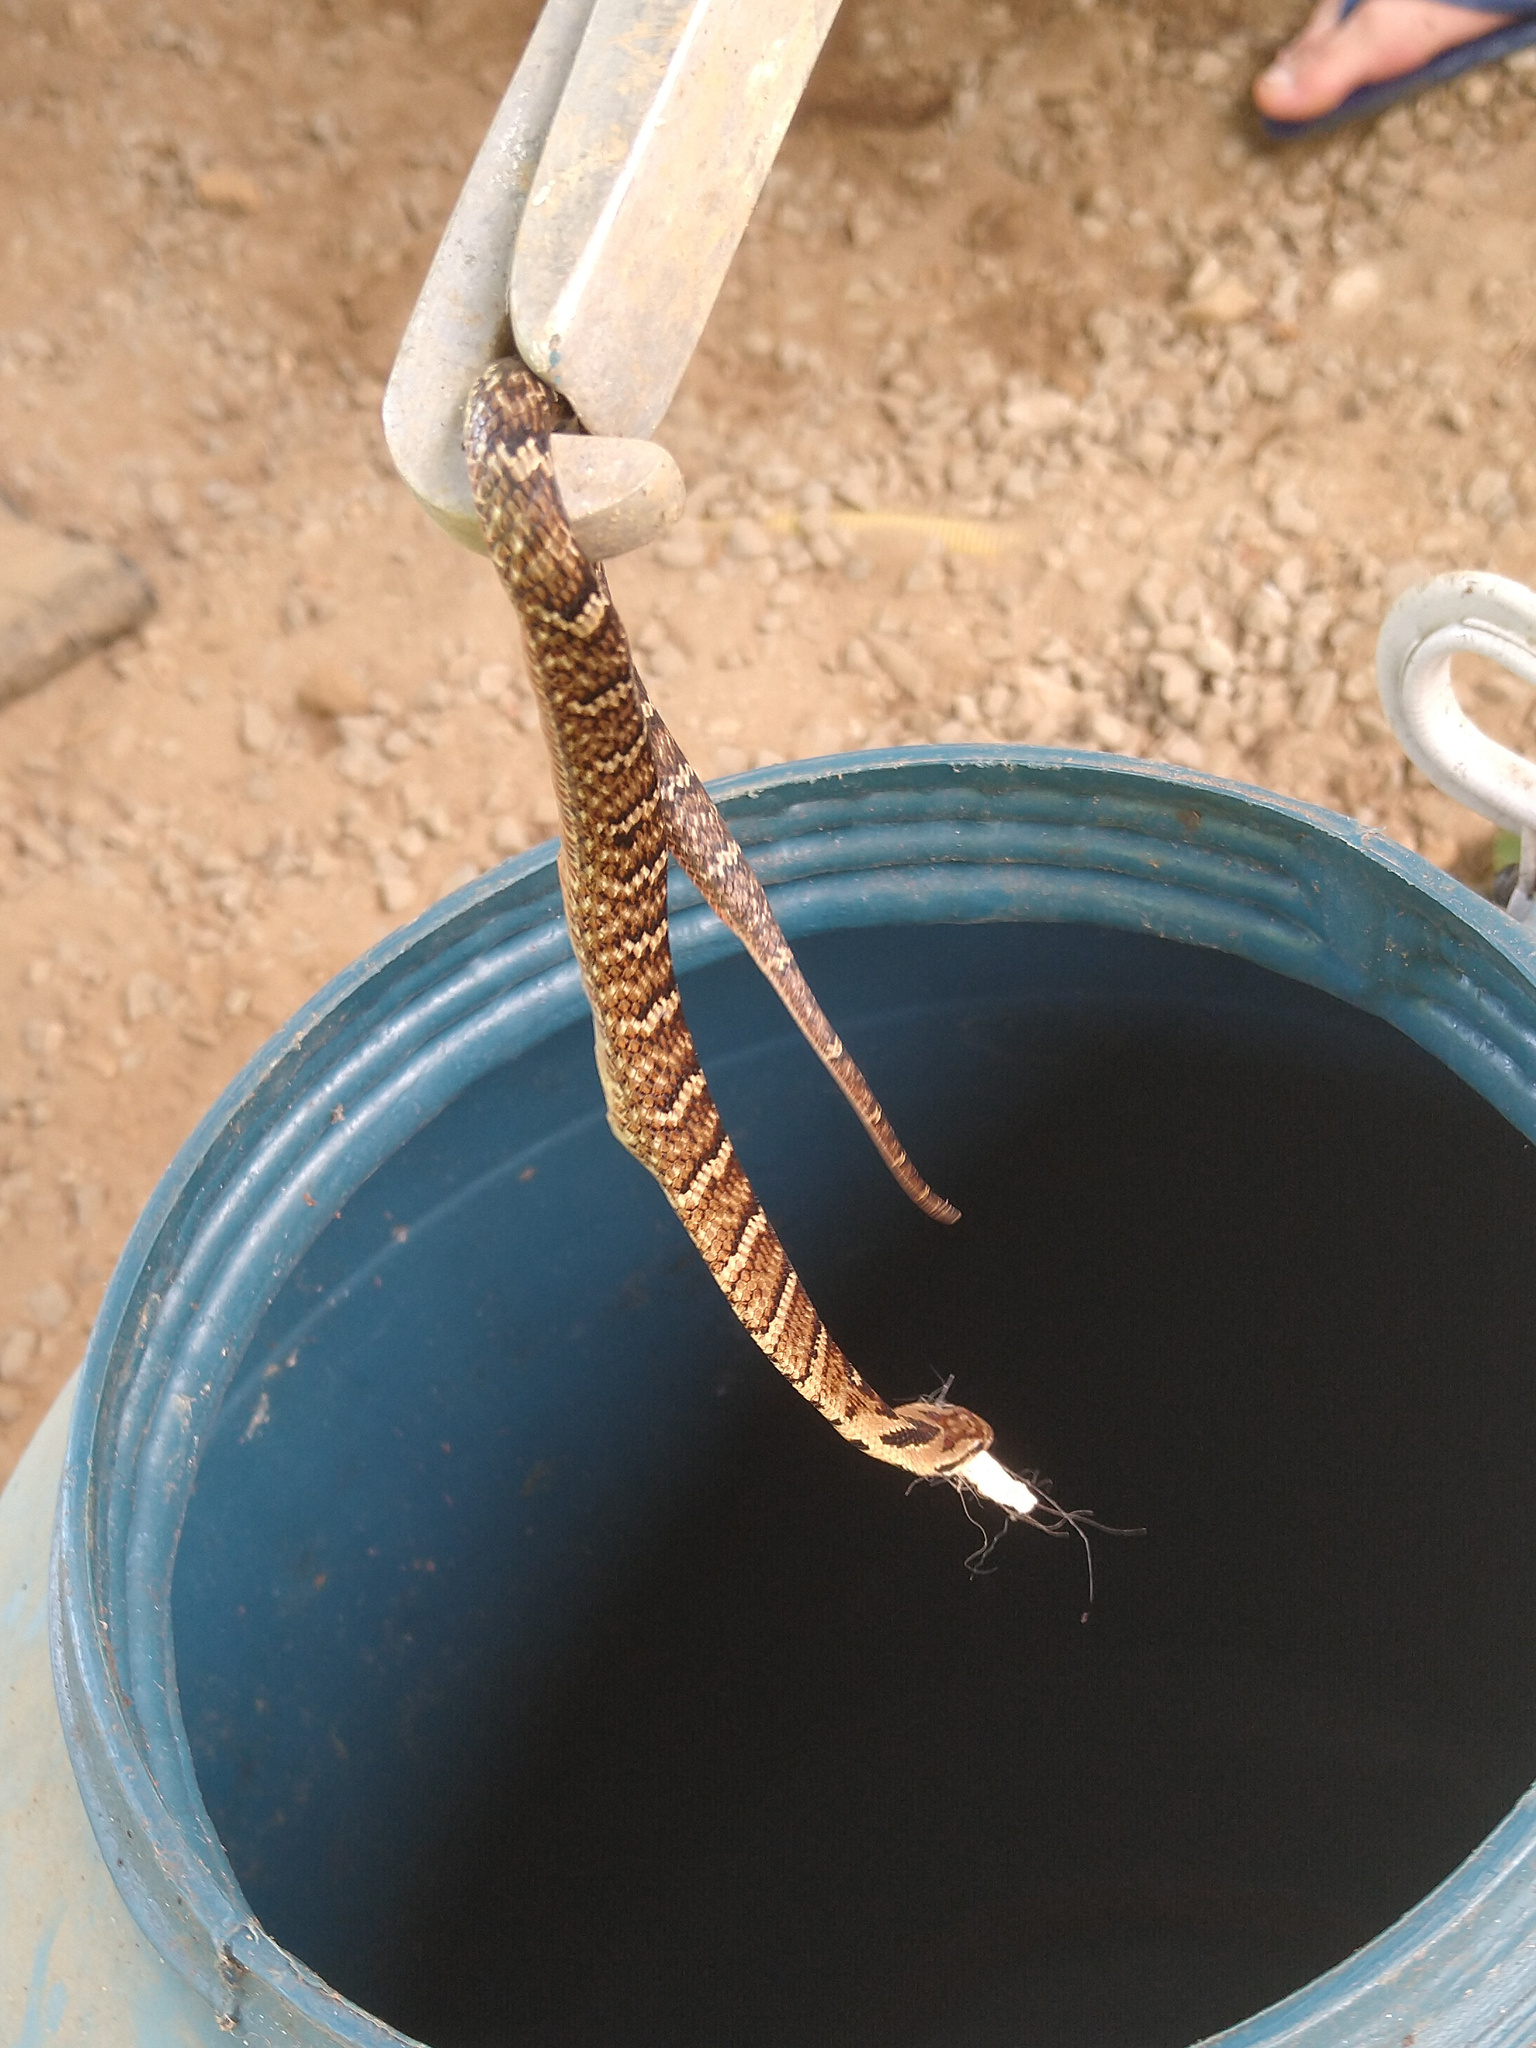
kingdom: Animalia
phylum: Chordata
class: Squamata
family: Colubridae
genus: Xenodon
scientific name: Xenodon neuwiedii
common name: Neuwied's false fer-de-lance
